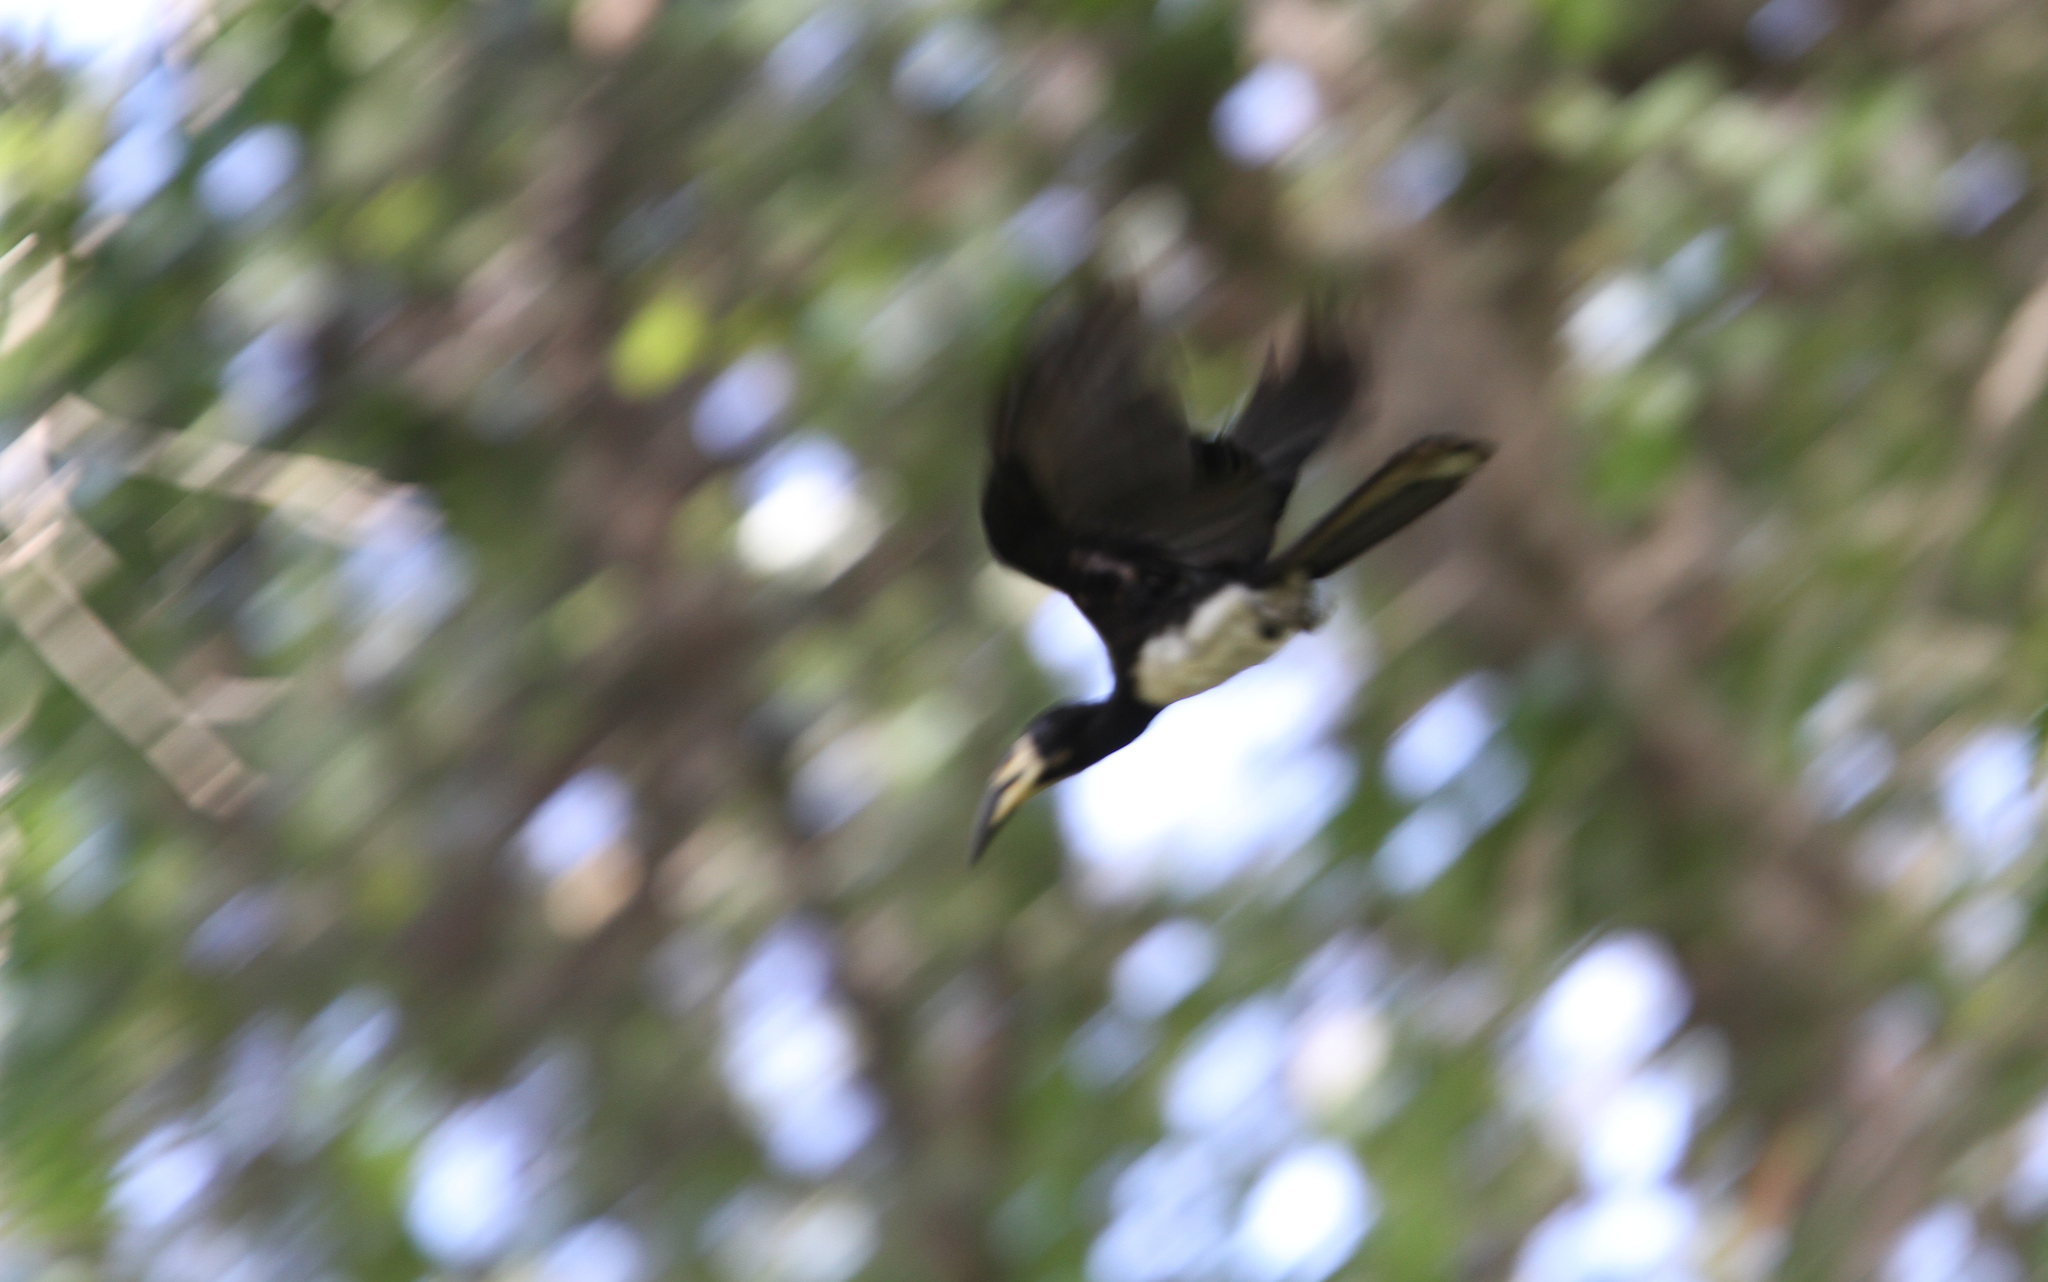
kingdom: Animalia
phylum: Chordata
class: Aves
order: Bucerotiformes
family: Bucerotidae
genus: Lophoceros
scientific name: Lophoceros fasciatus
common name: African pied hornbill
